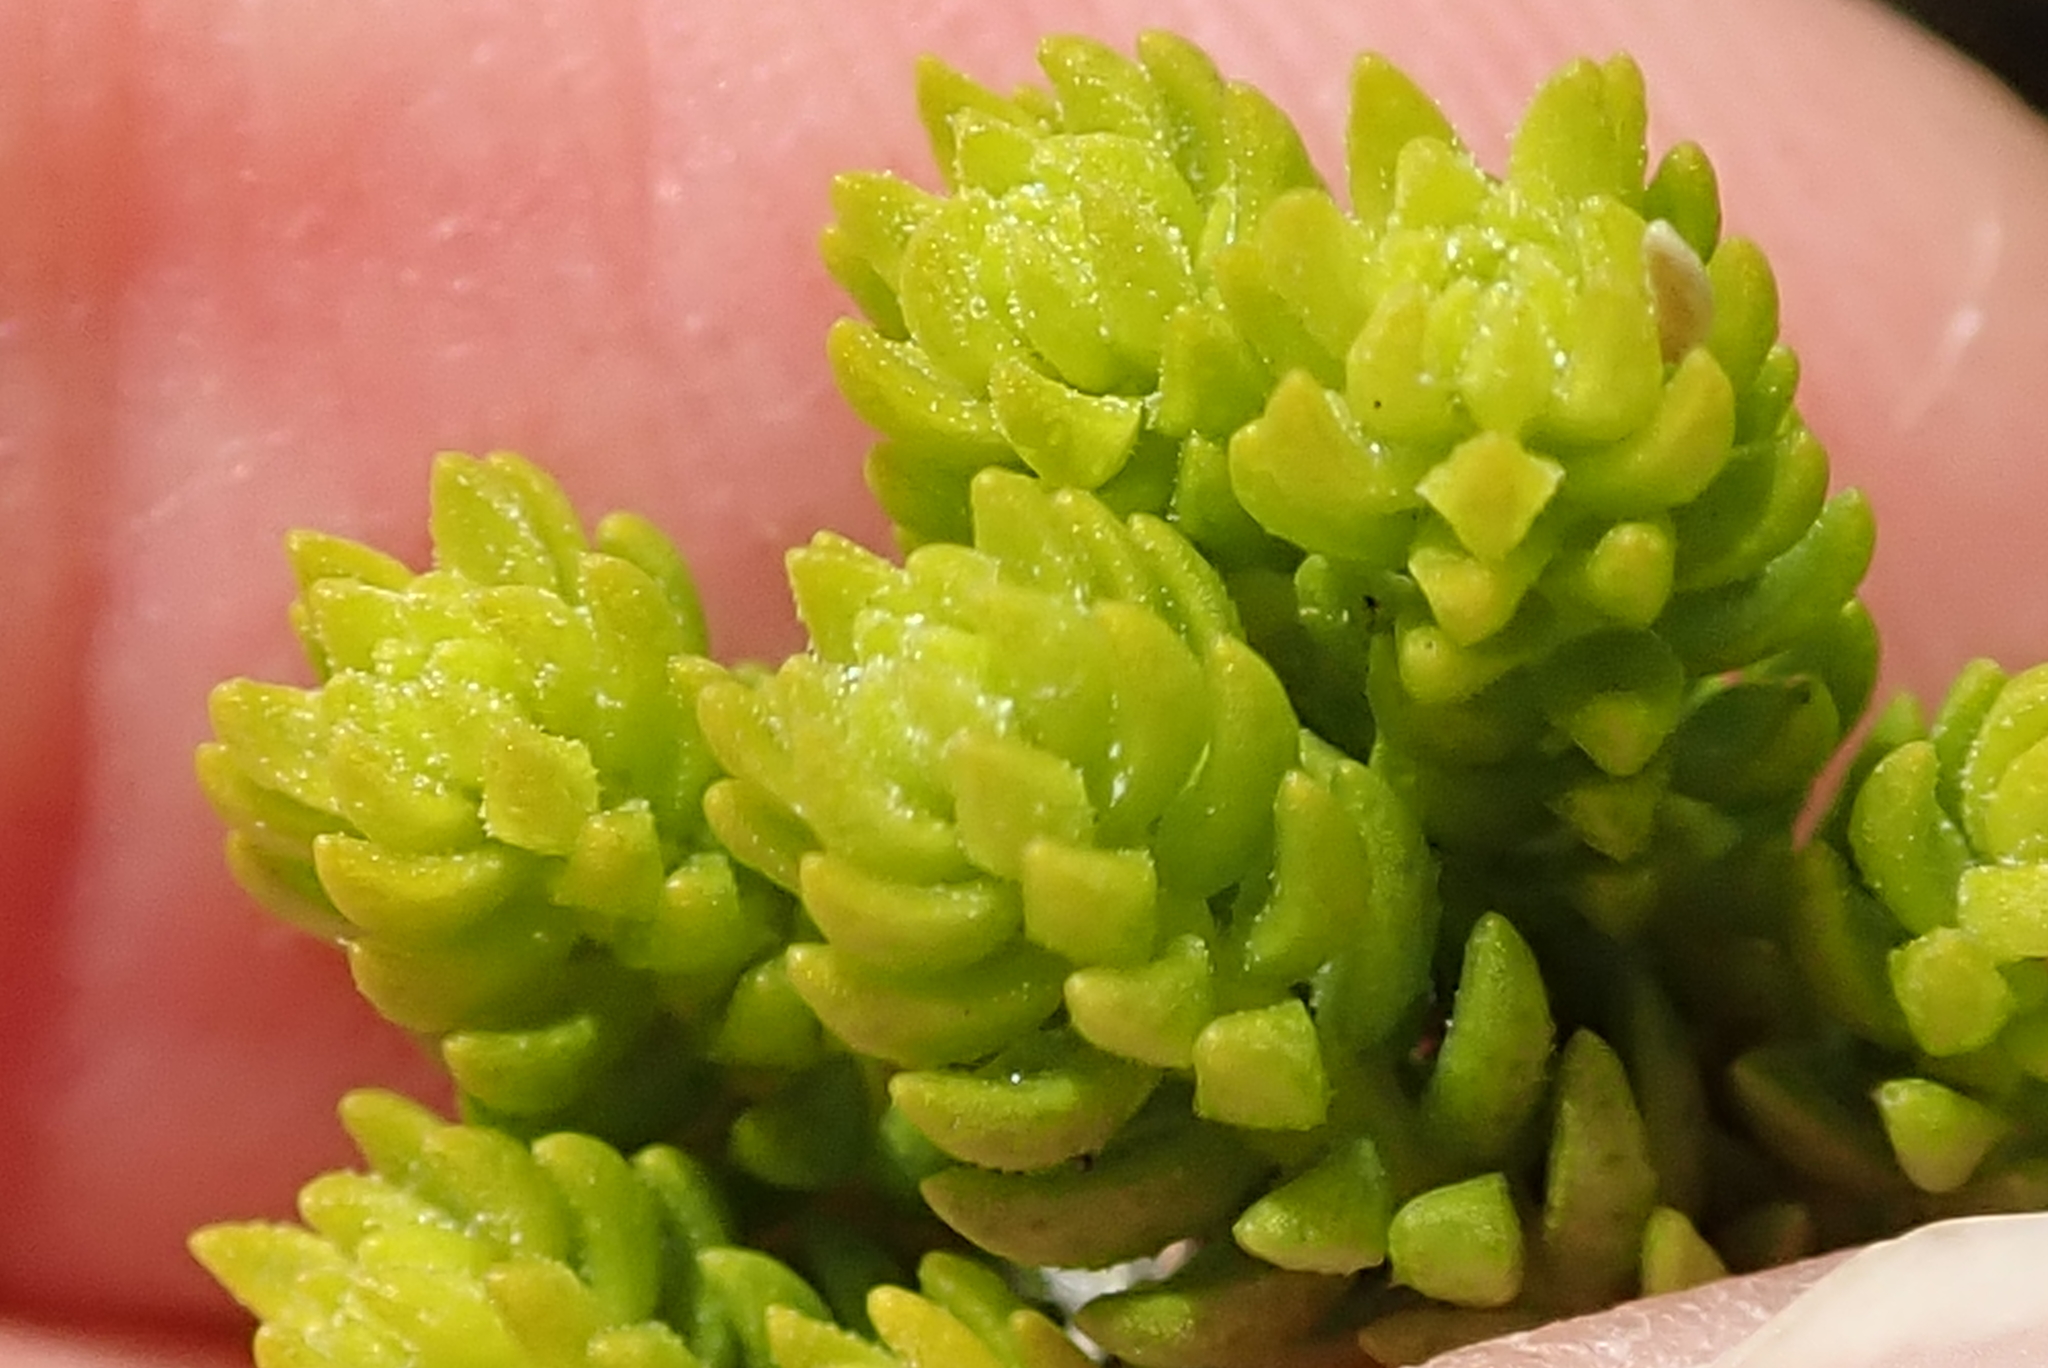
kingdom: Plantae
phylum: Tracheophyta
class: Magnoliopsida
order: Sapindales
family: Rutaceae
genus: Agathosma
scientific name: Agathosma collina
